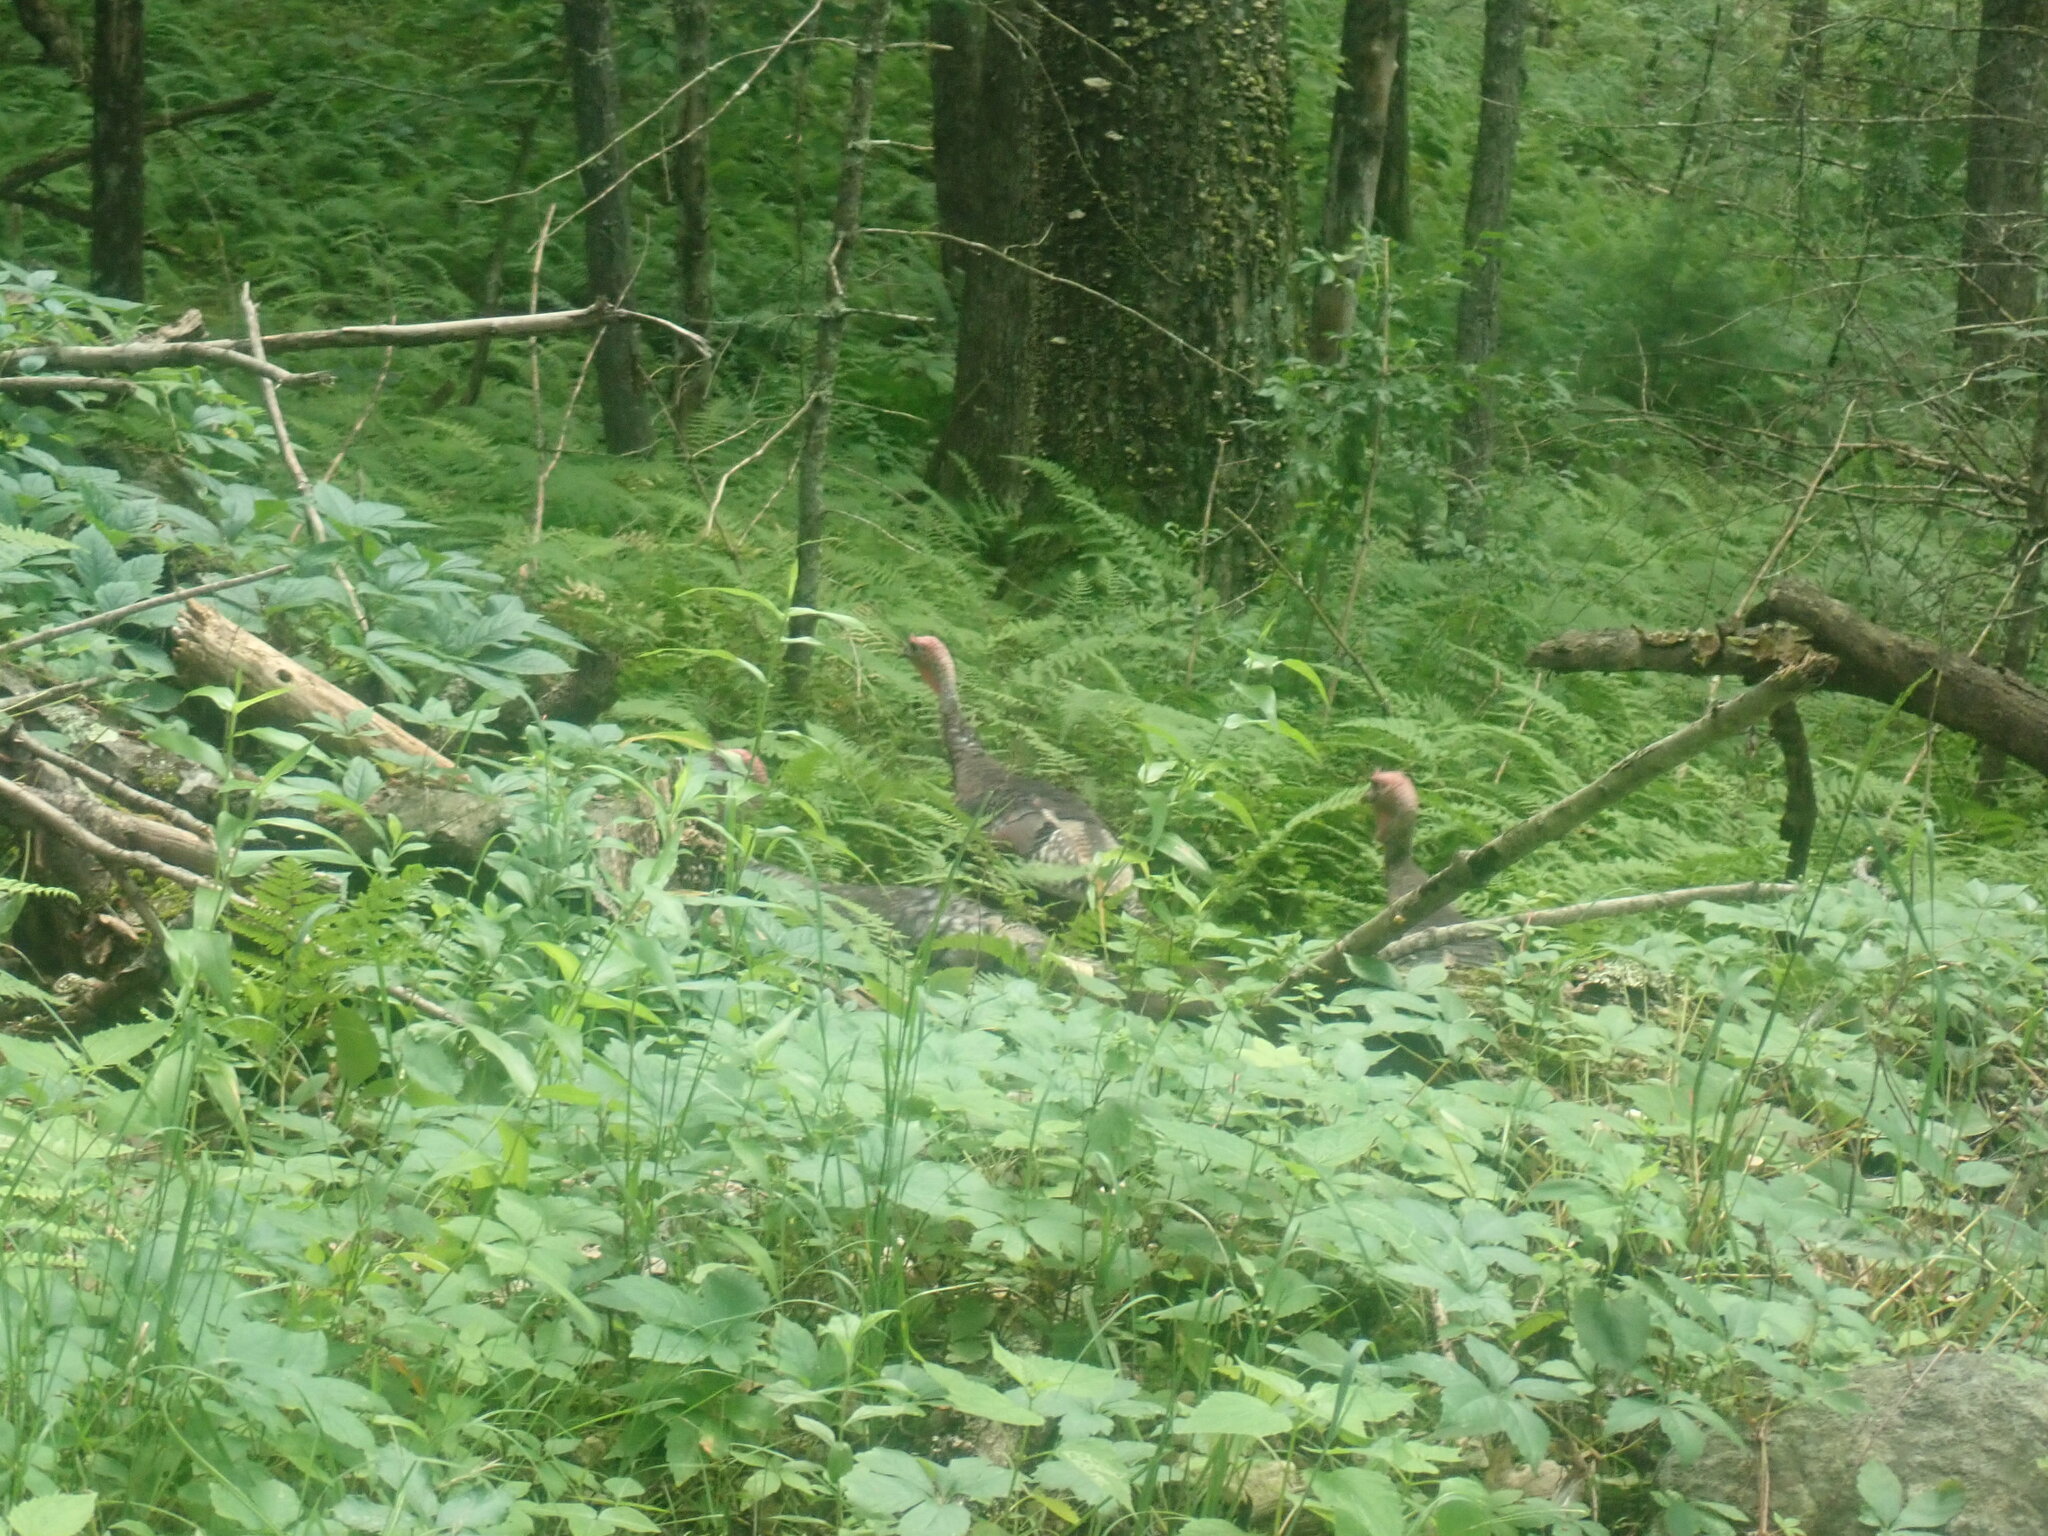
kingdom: Animalia
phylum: Chordata
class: Aves
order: Galliformes
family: Phasianidae
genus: Meleagris
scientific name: Meleagris gallopavo
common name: Wild turkey
